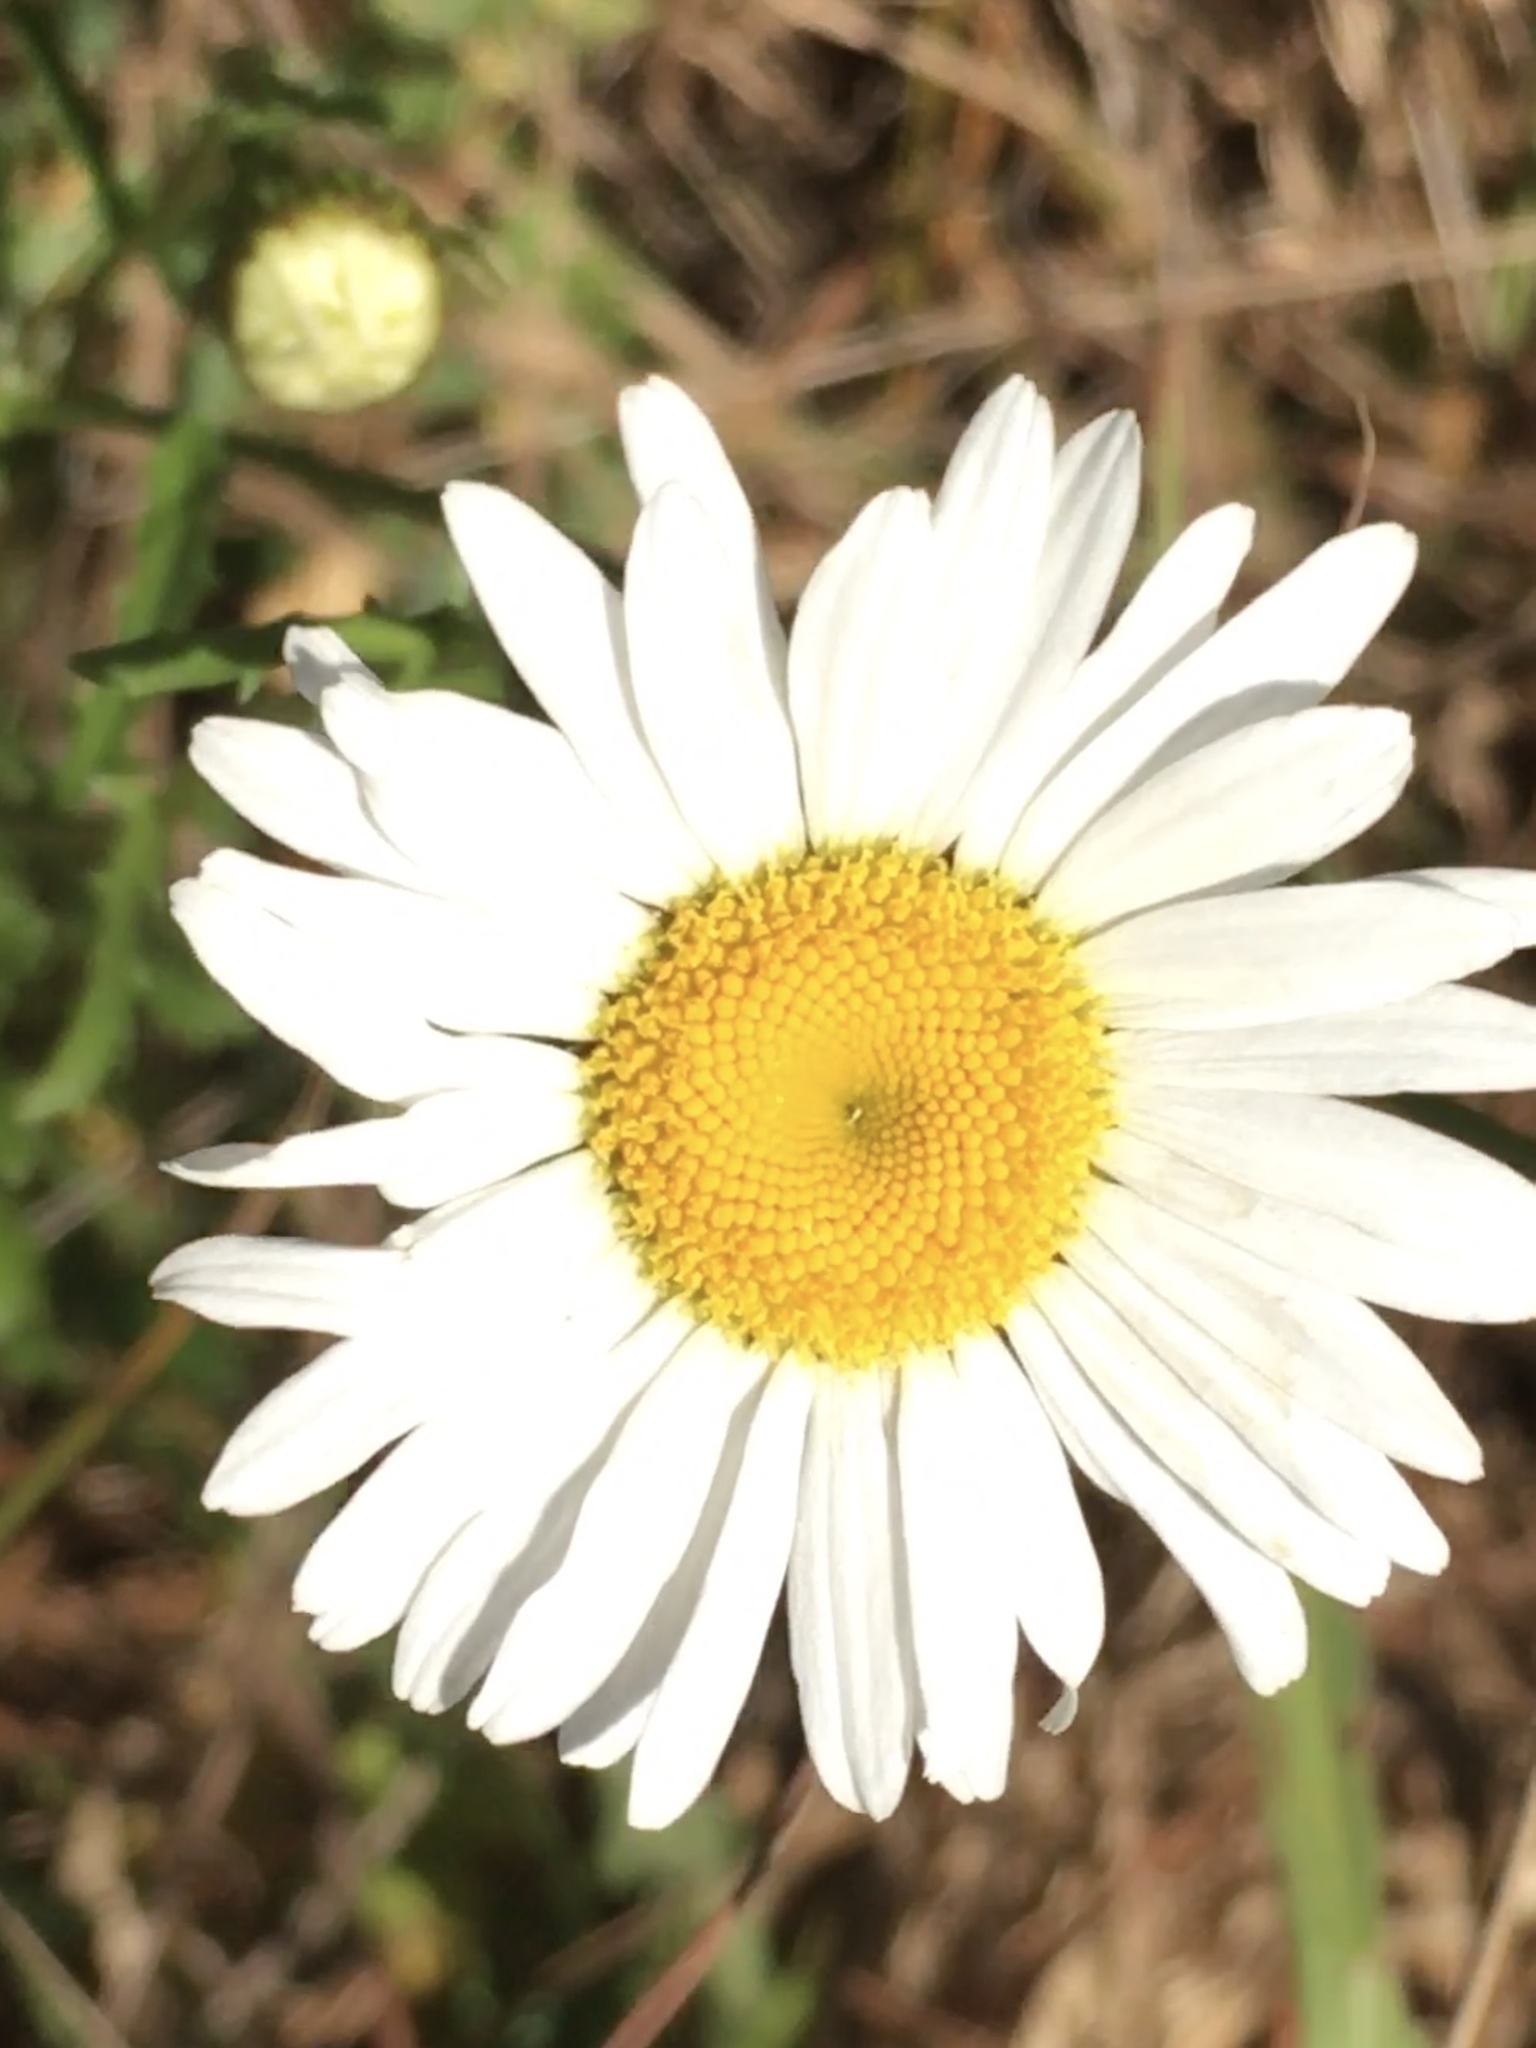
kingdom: Plantae
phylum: Tracheophyta
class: Magnoliopsida
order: Asterales
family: Asteraceae
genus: Leucanthemum
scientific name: Leucanthemum vulgare
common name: Oxeye daisy
